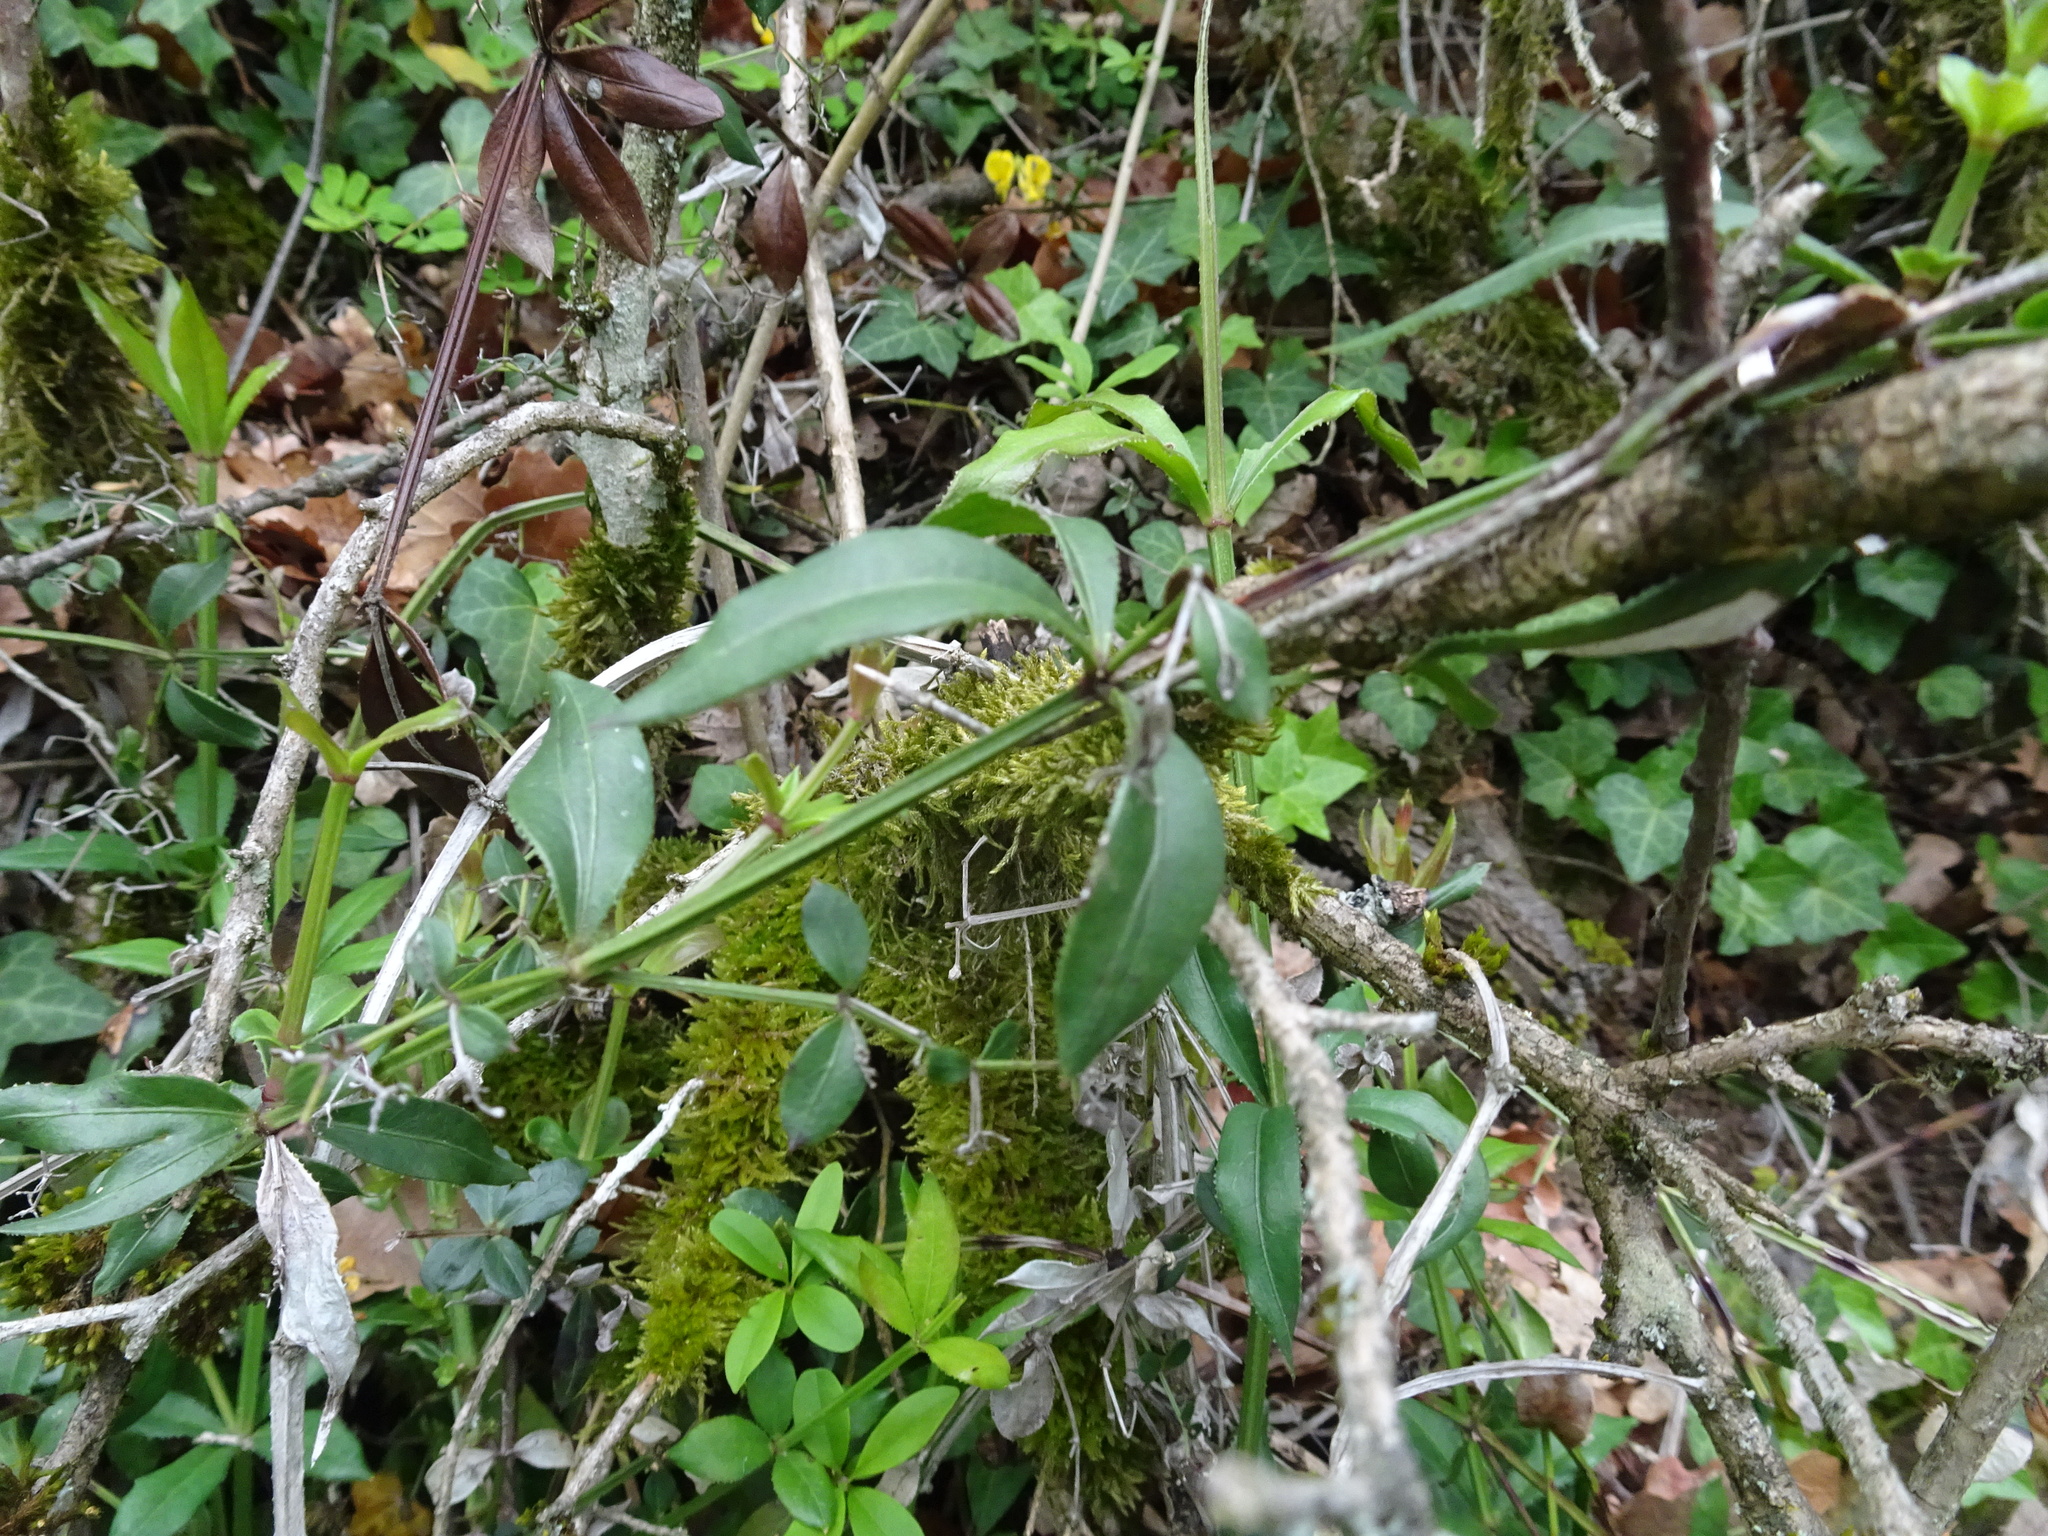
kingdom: Plantae
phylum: Tracheophyta
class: Magnoliopsida
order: Gentianales
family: Rubiaceae
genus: Rubia
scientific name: Rubia peregrina
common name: Wild madder
